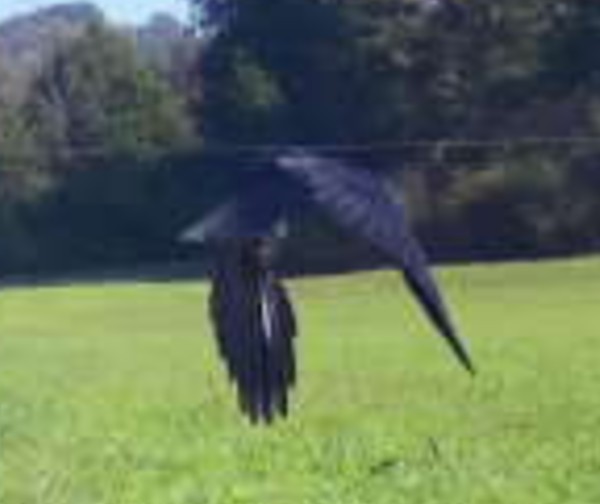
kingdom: Animalia
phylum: Chordata
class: Aves
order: Passeriformes
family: Corvidae
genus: Corvus
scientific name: Corvus brachyrhynchos
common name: American crow
